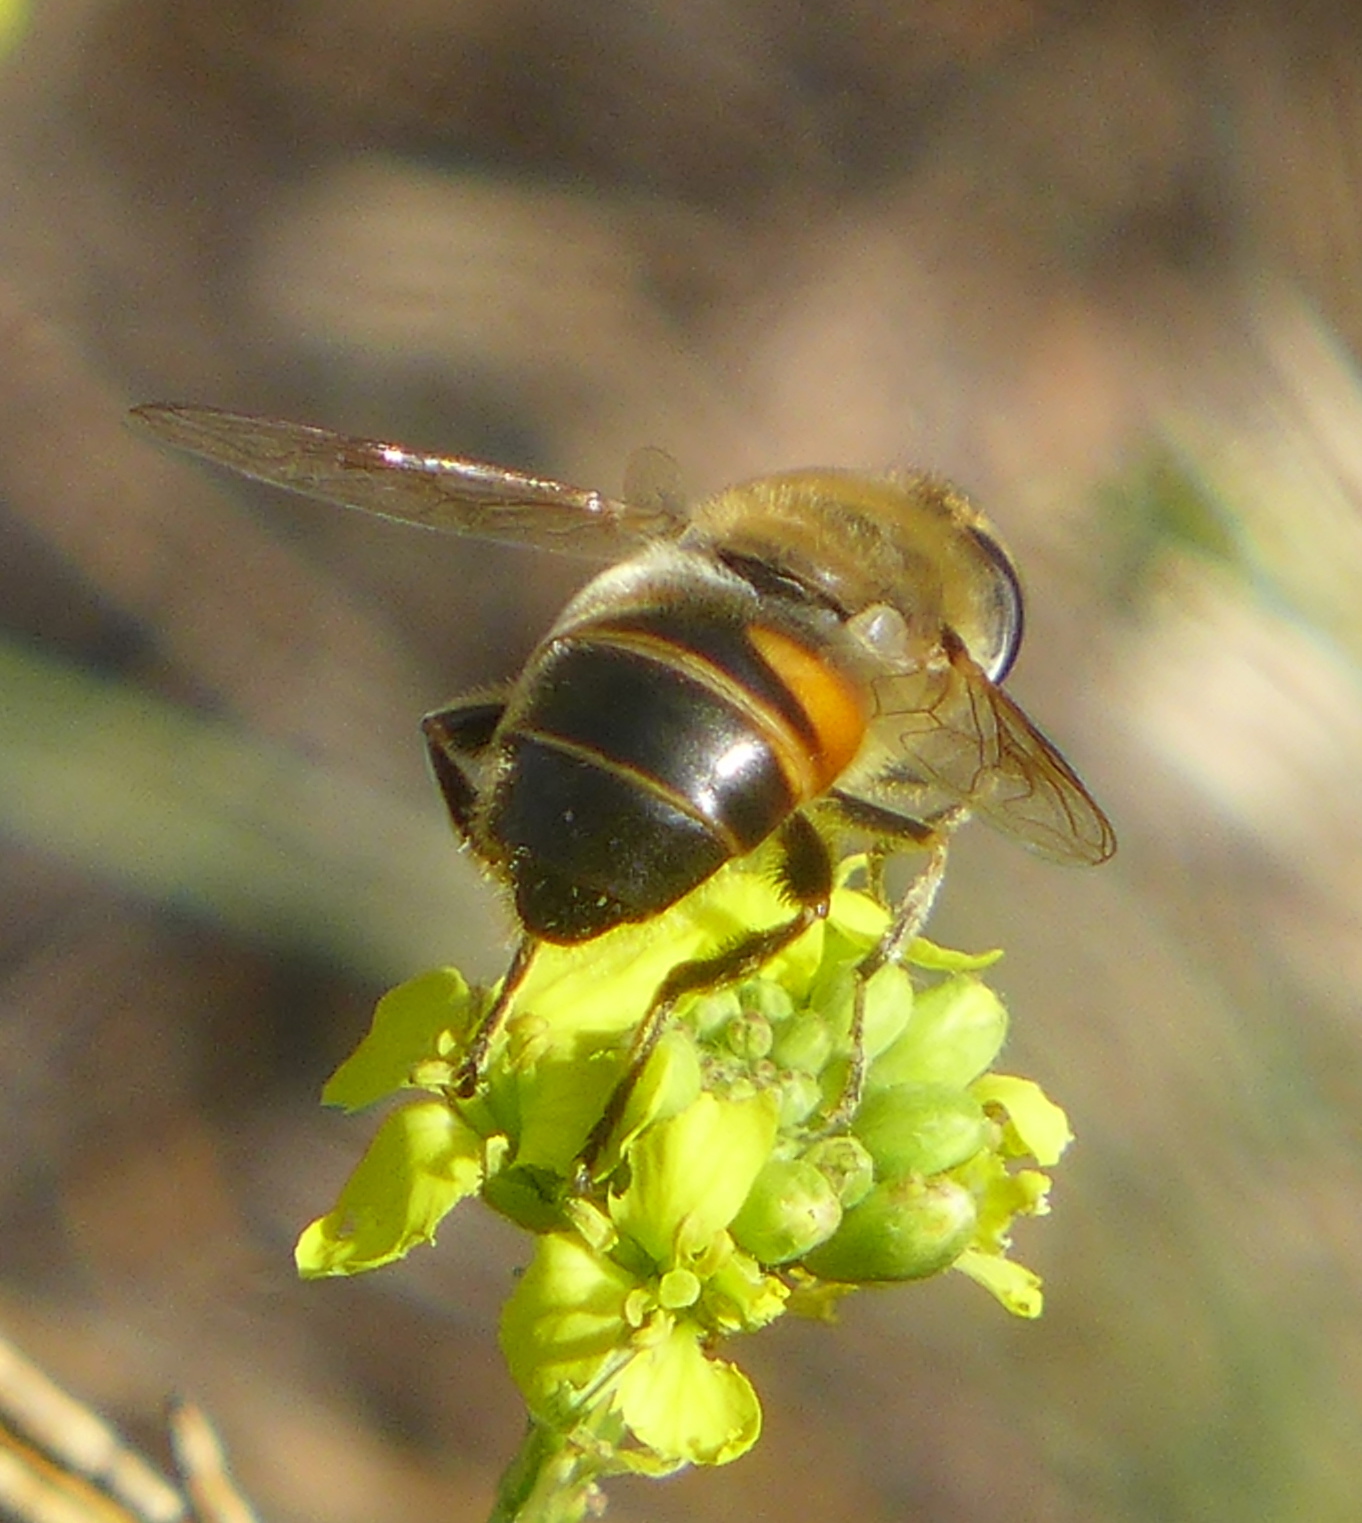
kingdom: Animalia
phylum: Arthropoda
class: Insecta
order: Diptera
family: Syrphidae
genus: Eristalis
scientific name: Eristalis tenax
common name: Drone fly
